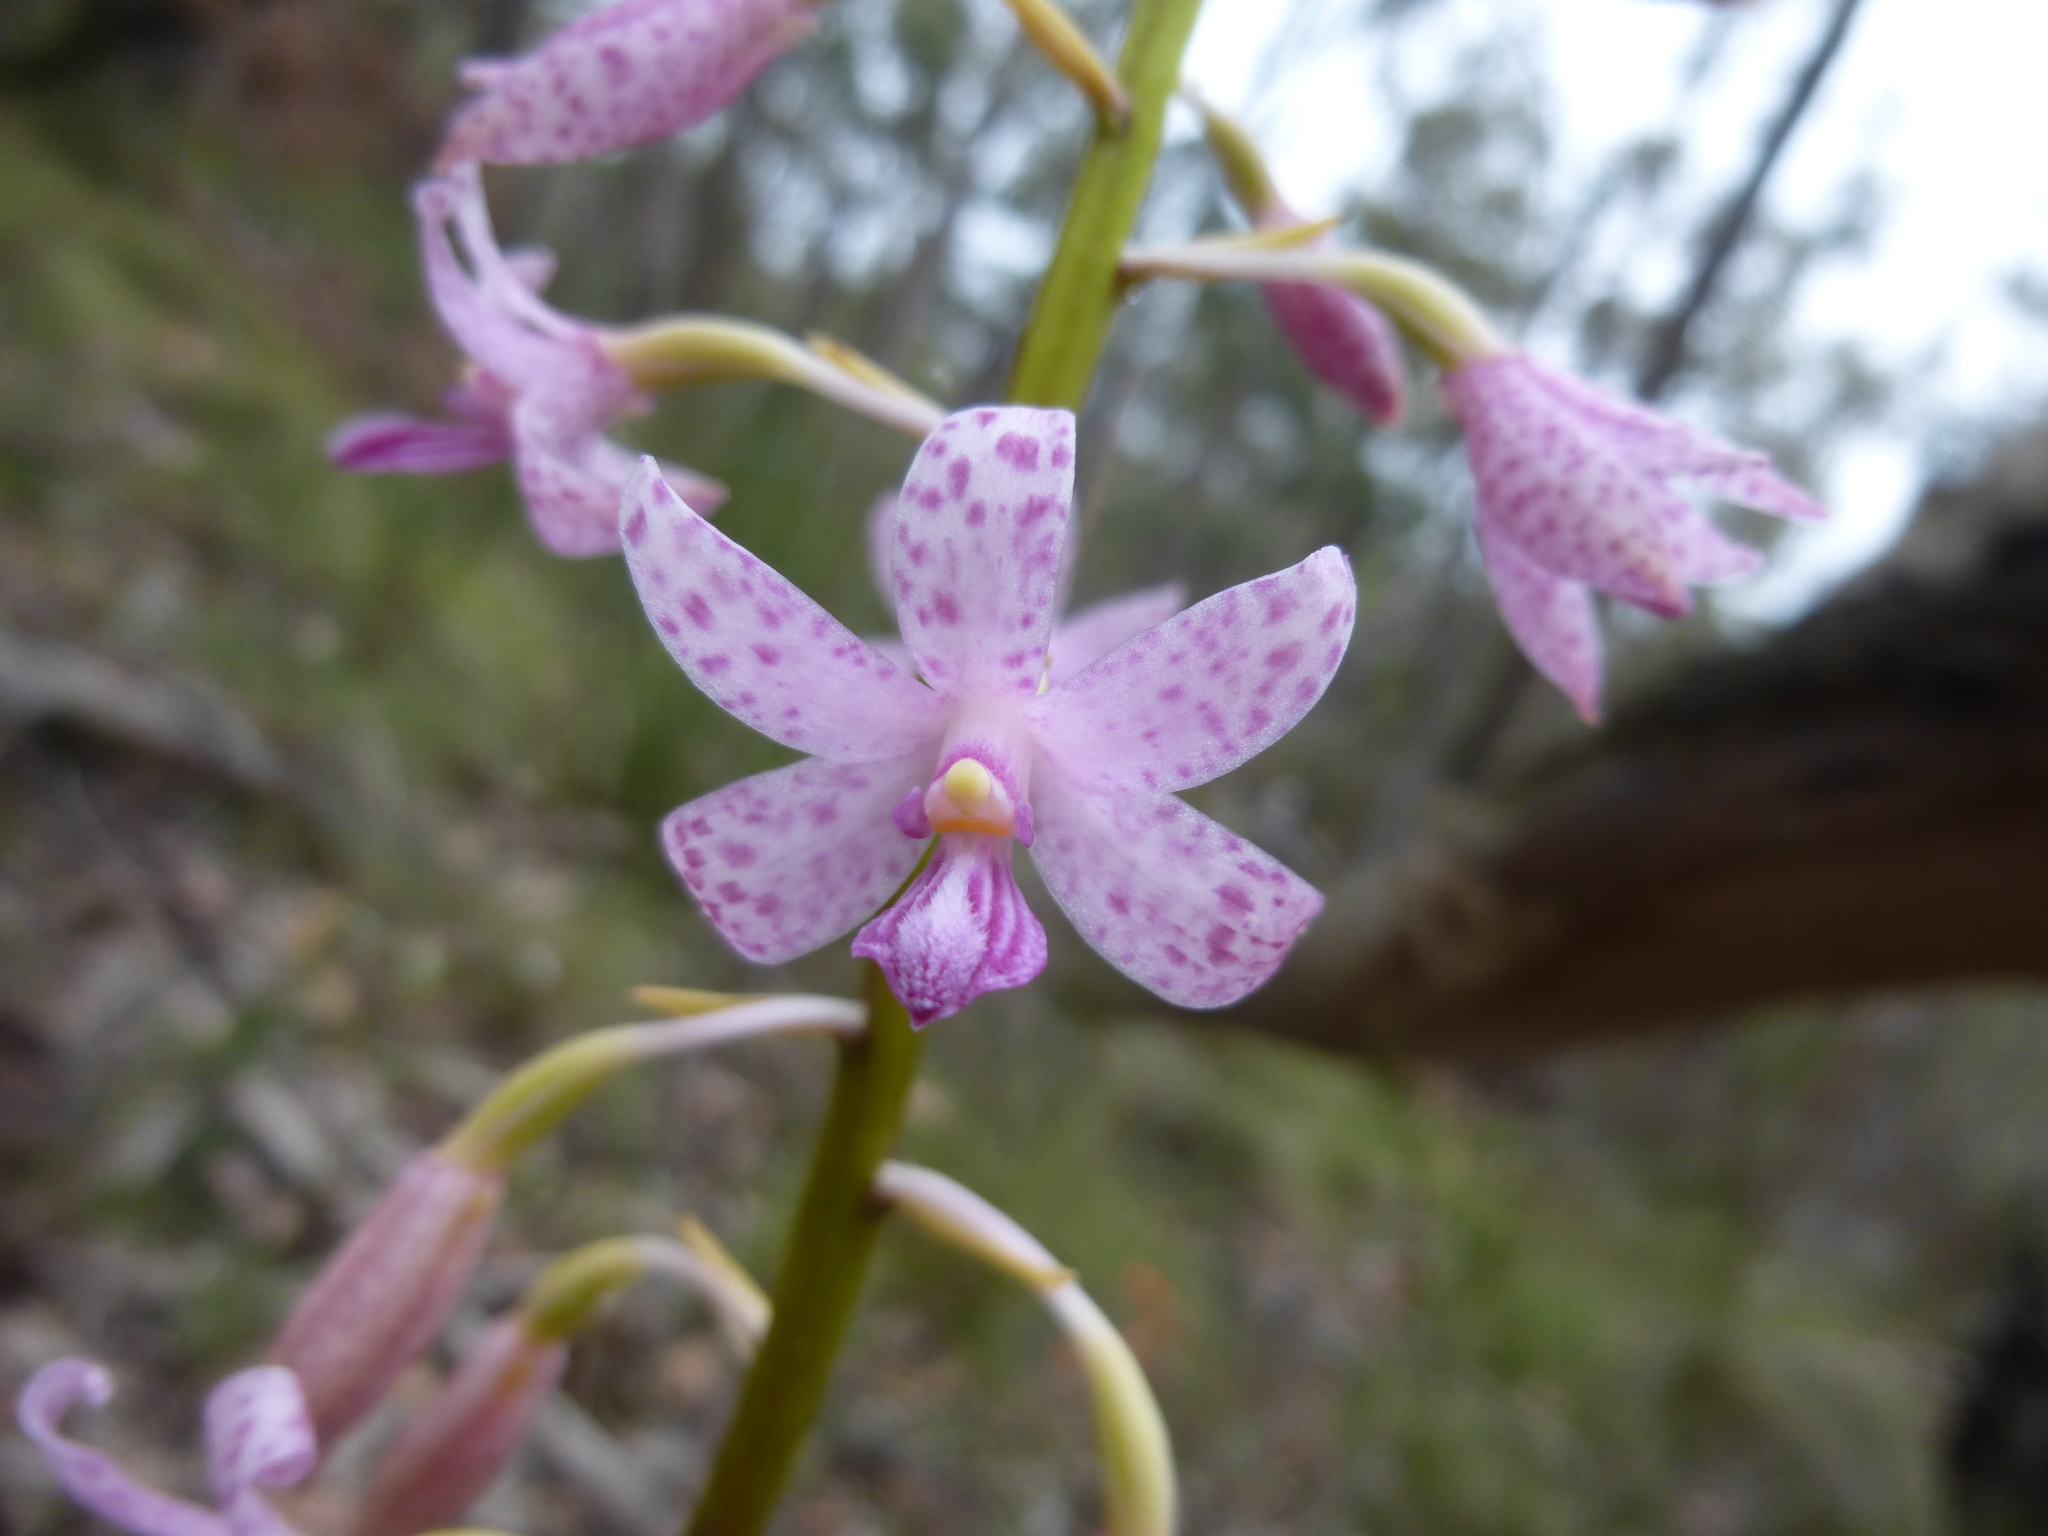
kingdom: Plantae
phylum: Tracheophyta
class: Liliopsida
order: Asparagales
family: Orchidaceae
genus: Dipodium
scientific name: Dipodium roseum
